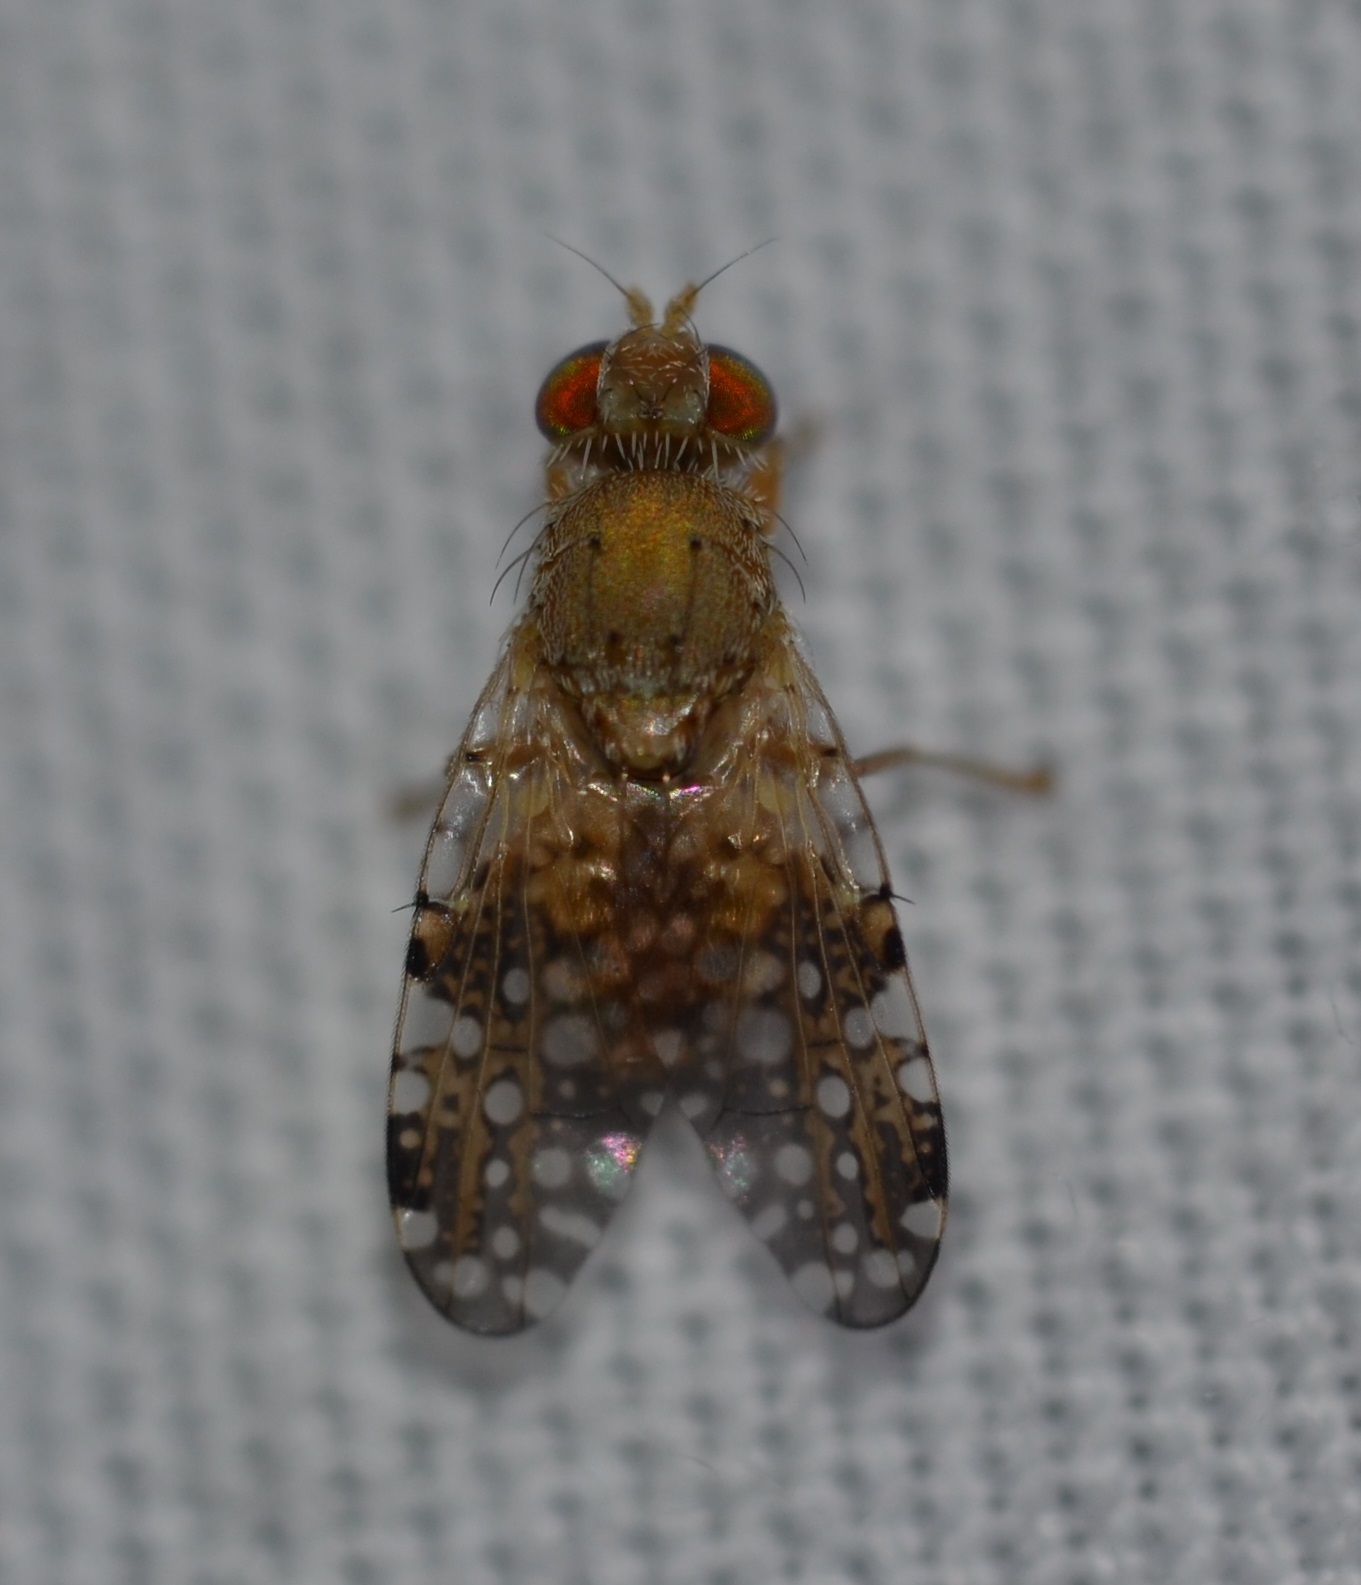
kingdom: Animalia
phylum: Arthropoda
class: Insecta
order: Diptera
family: Tephritidae
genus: Acinia
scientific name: Acinia picturata
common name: Sourbush seed fly
